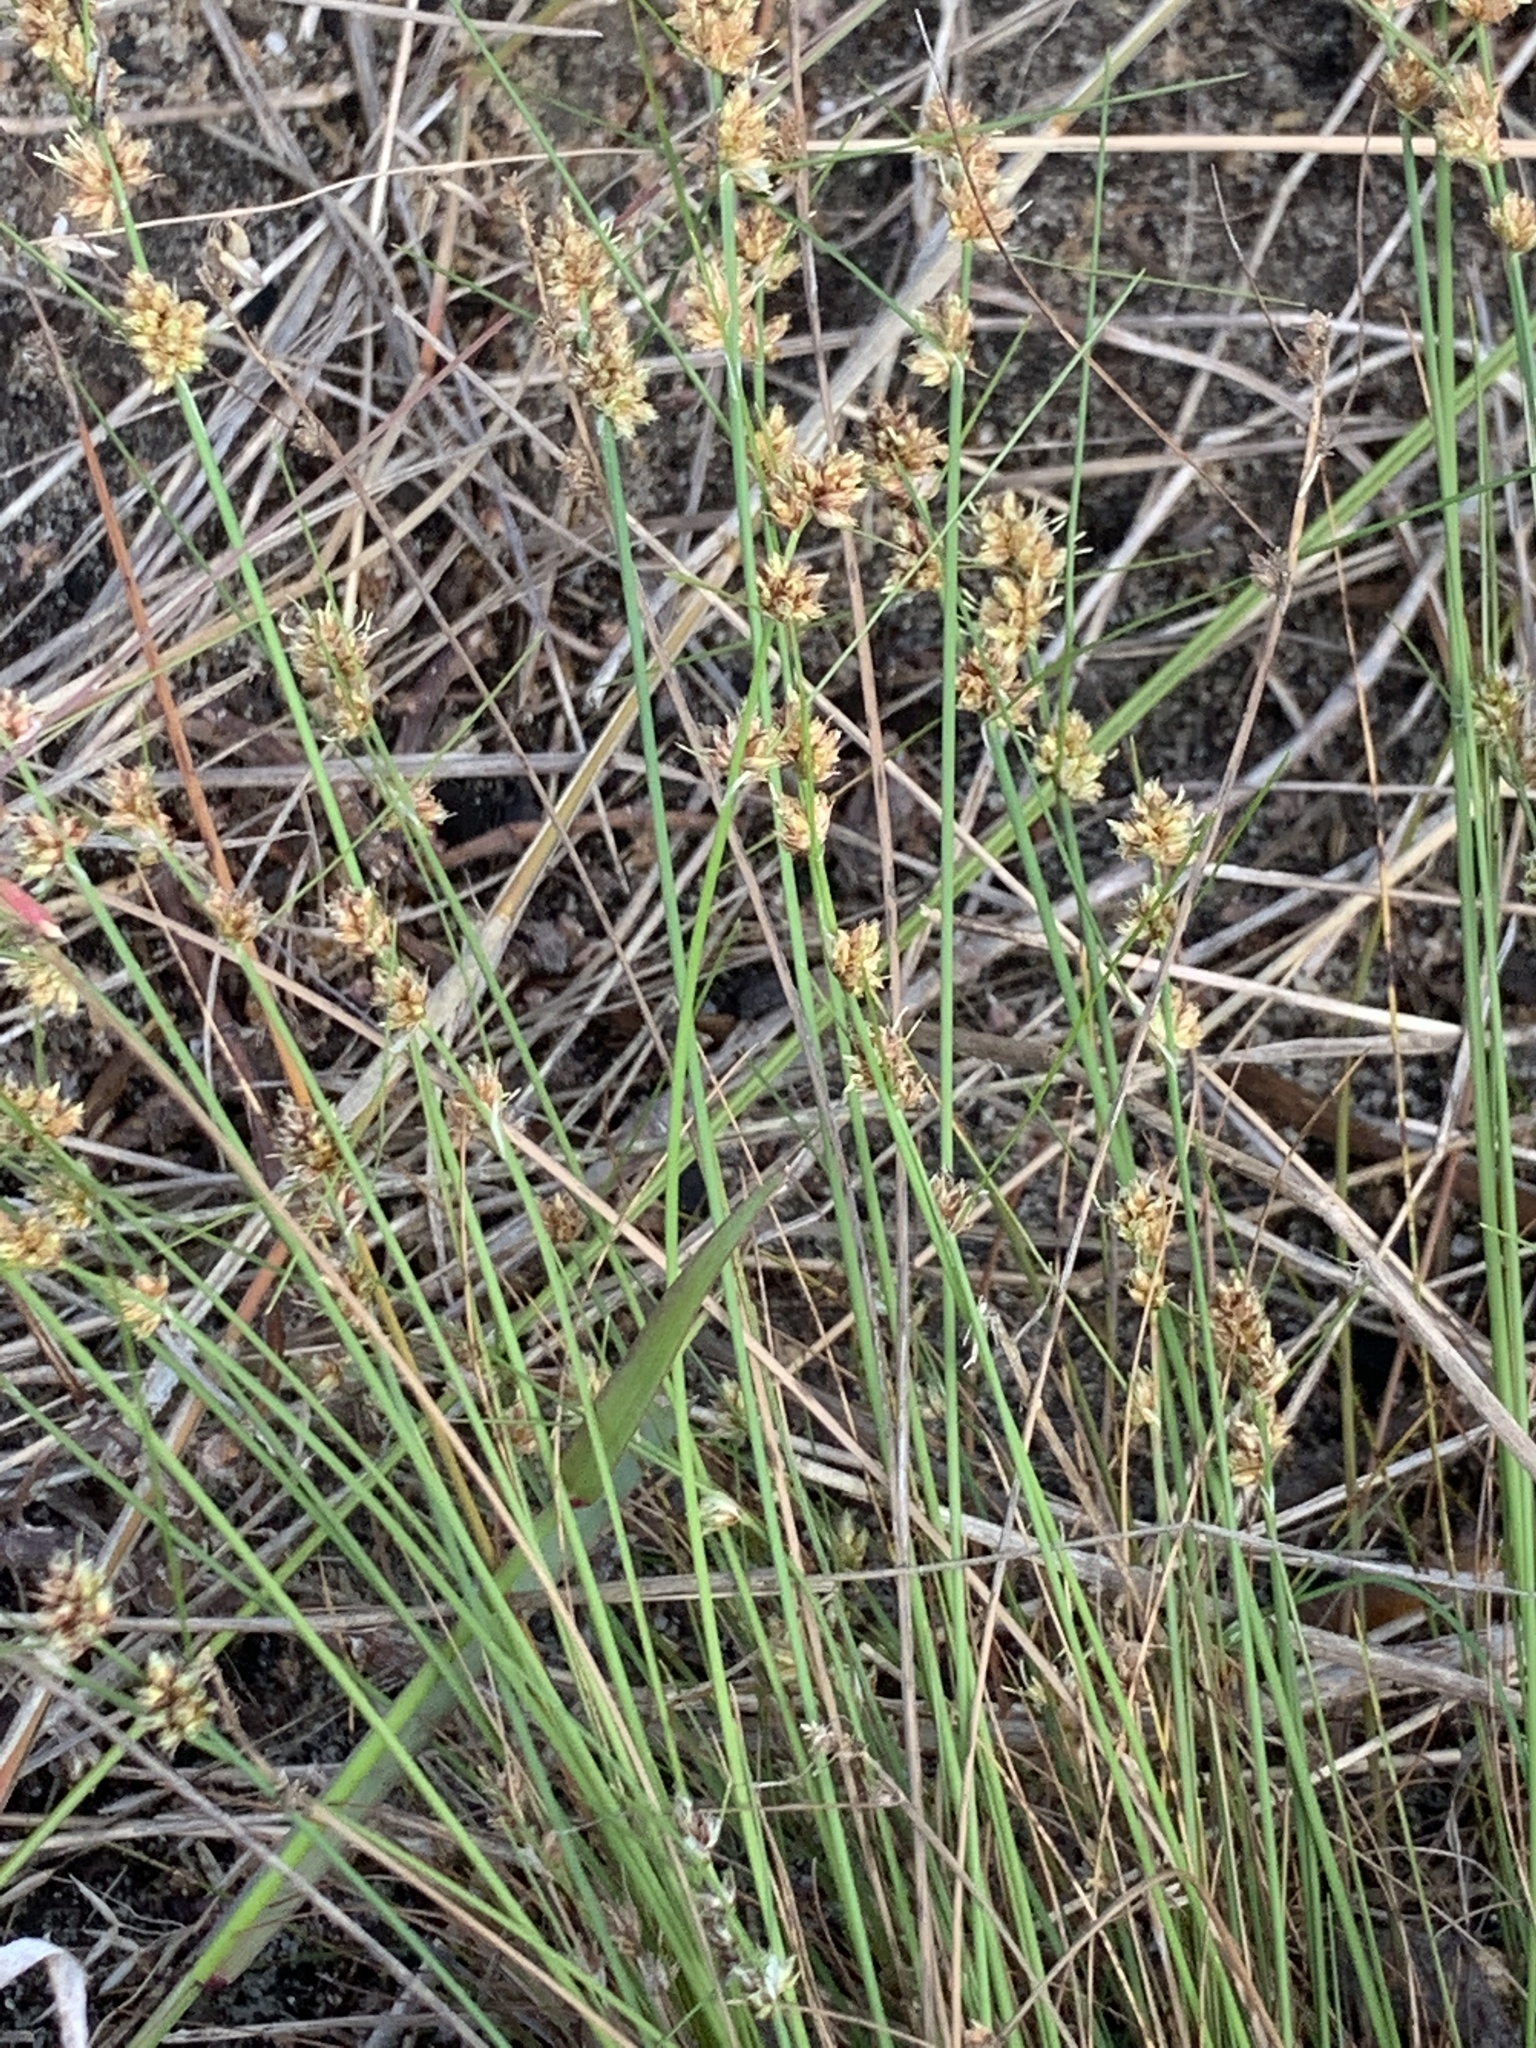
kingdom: Plantae
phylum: Tracheophyta
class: Liliopsida
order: Poales
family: Cyperaceae
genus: Ficinia
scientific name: Ficinia bulbosa
